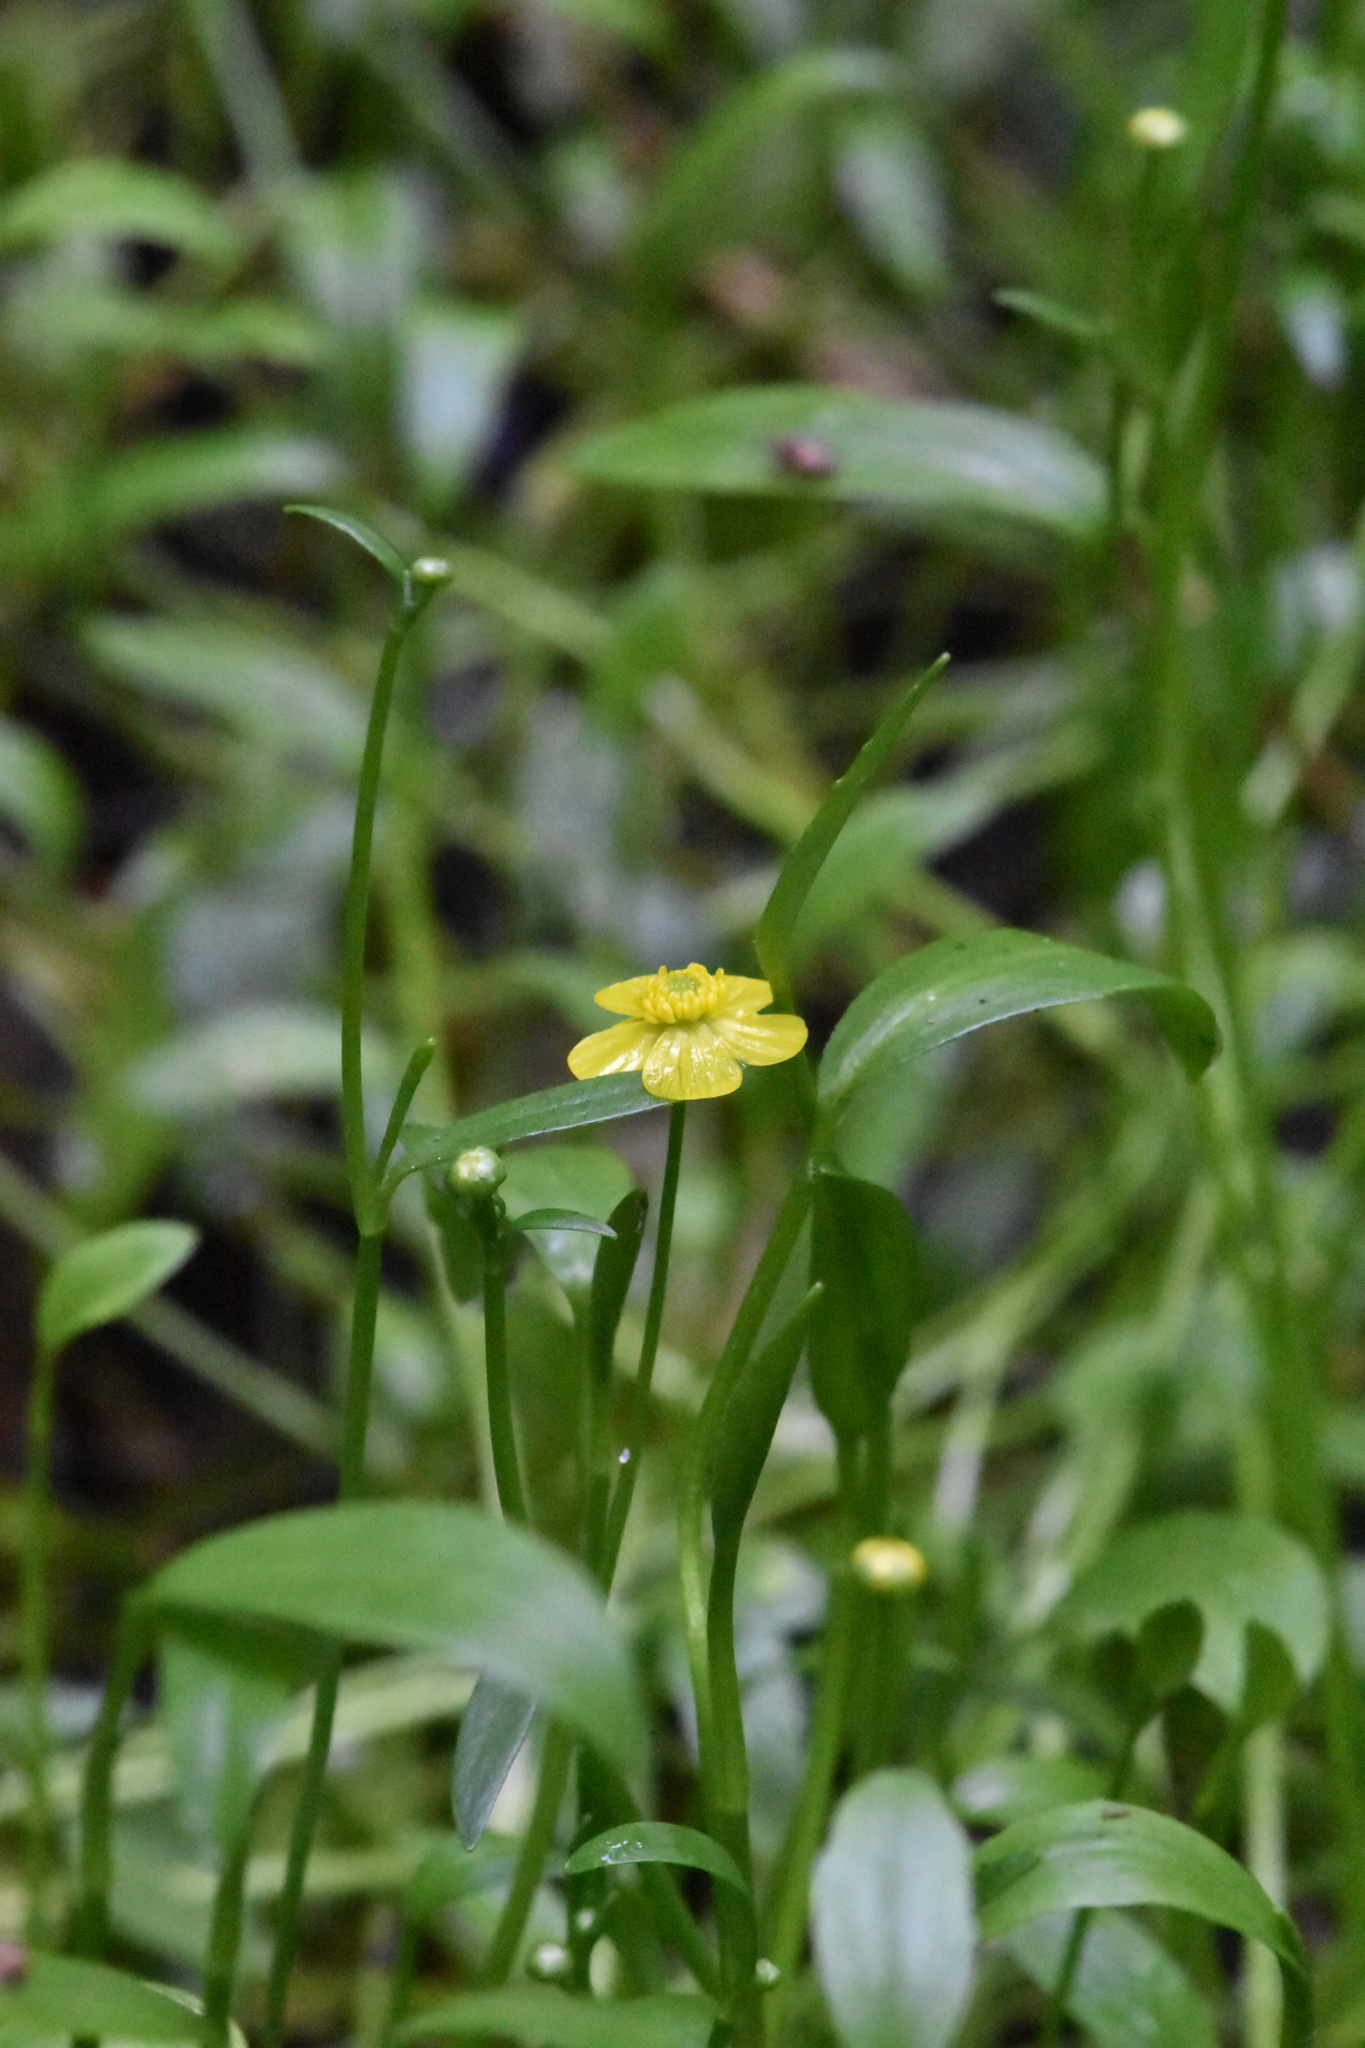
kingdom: Plantae
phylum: Tracheophyta
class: Magnoliopsida
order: Ranunculales
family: Ranunculaceae
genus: Ranunculus
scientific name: Ranunculus flammula
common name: Lesser spearwort
